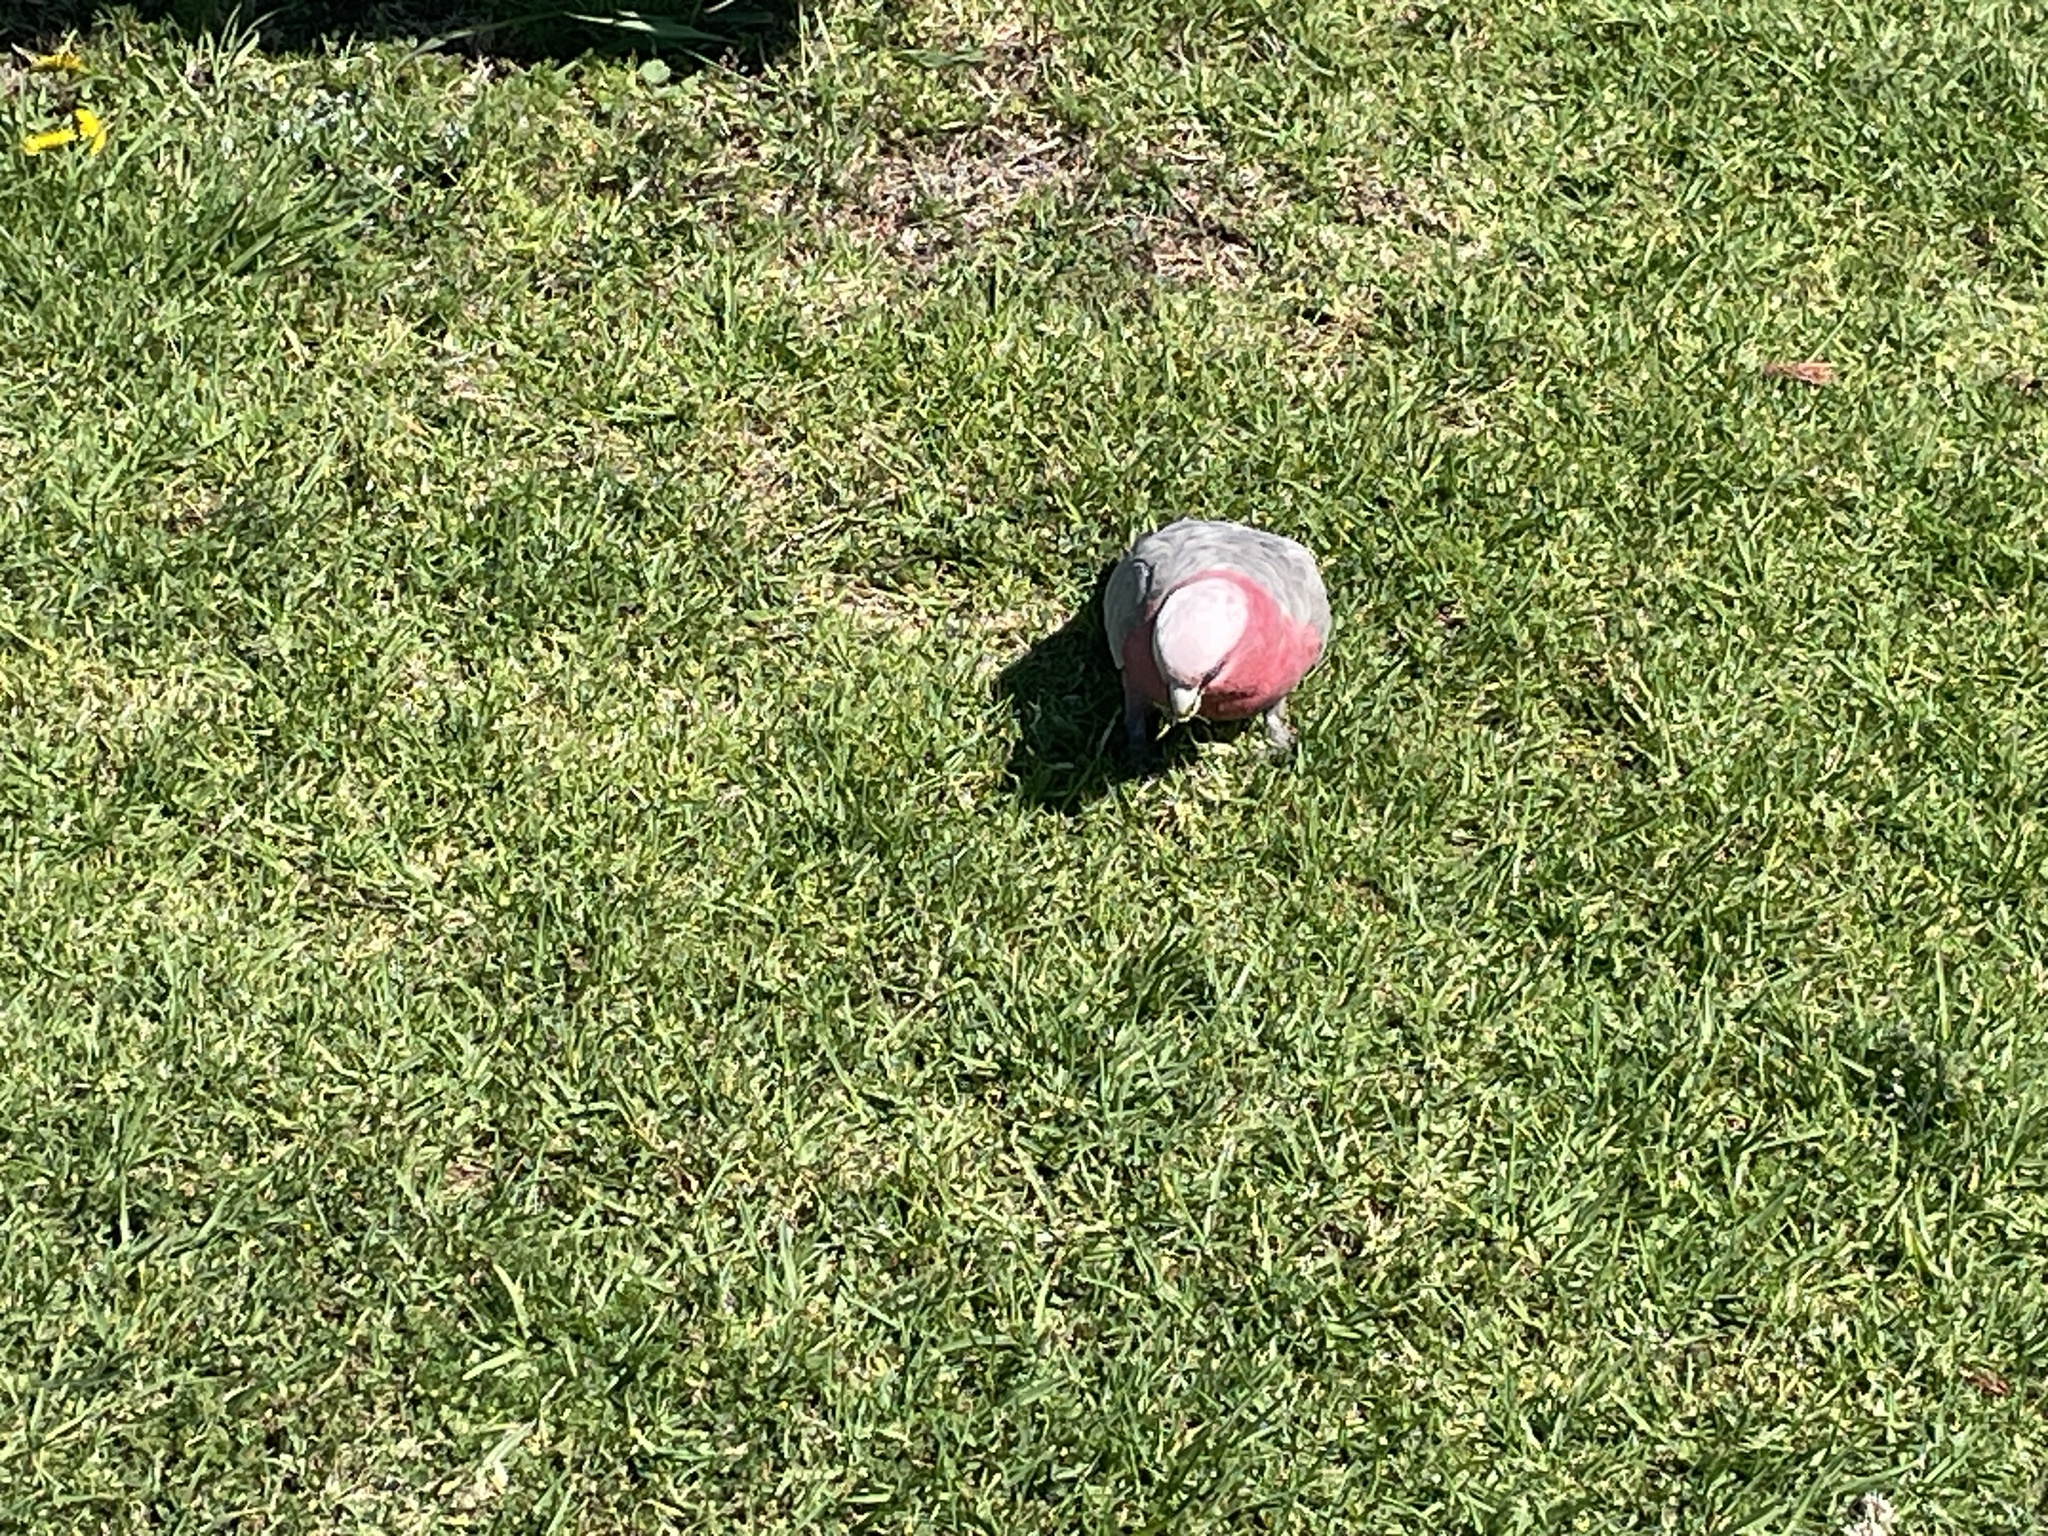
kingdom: Animalia
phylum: Chordata
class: Aves
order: Psittaciformes
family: Psittacidae
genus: Eolophus
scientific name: Eolophus roseicapilla
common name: Galah
